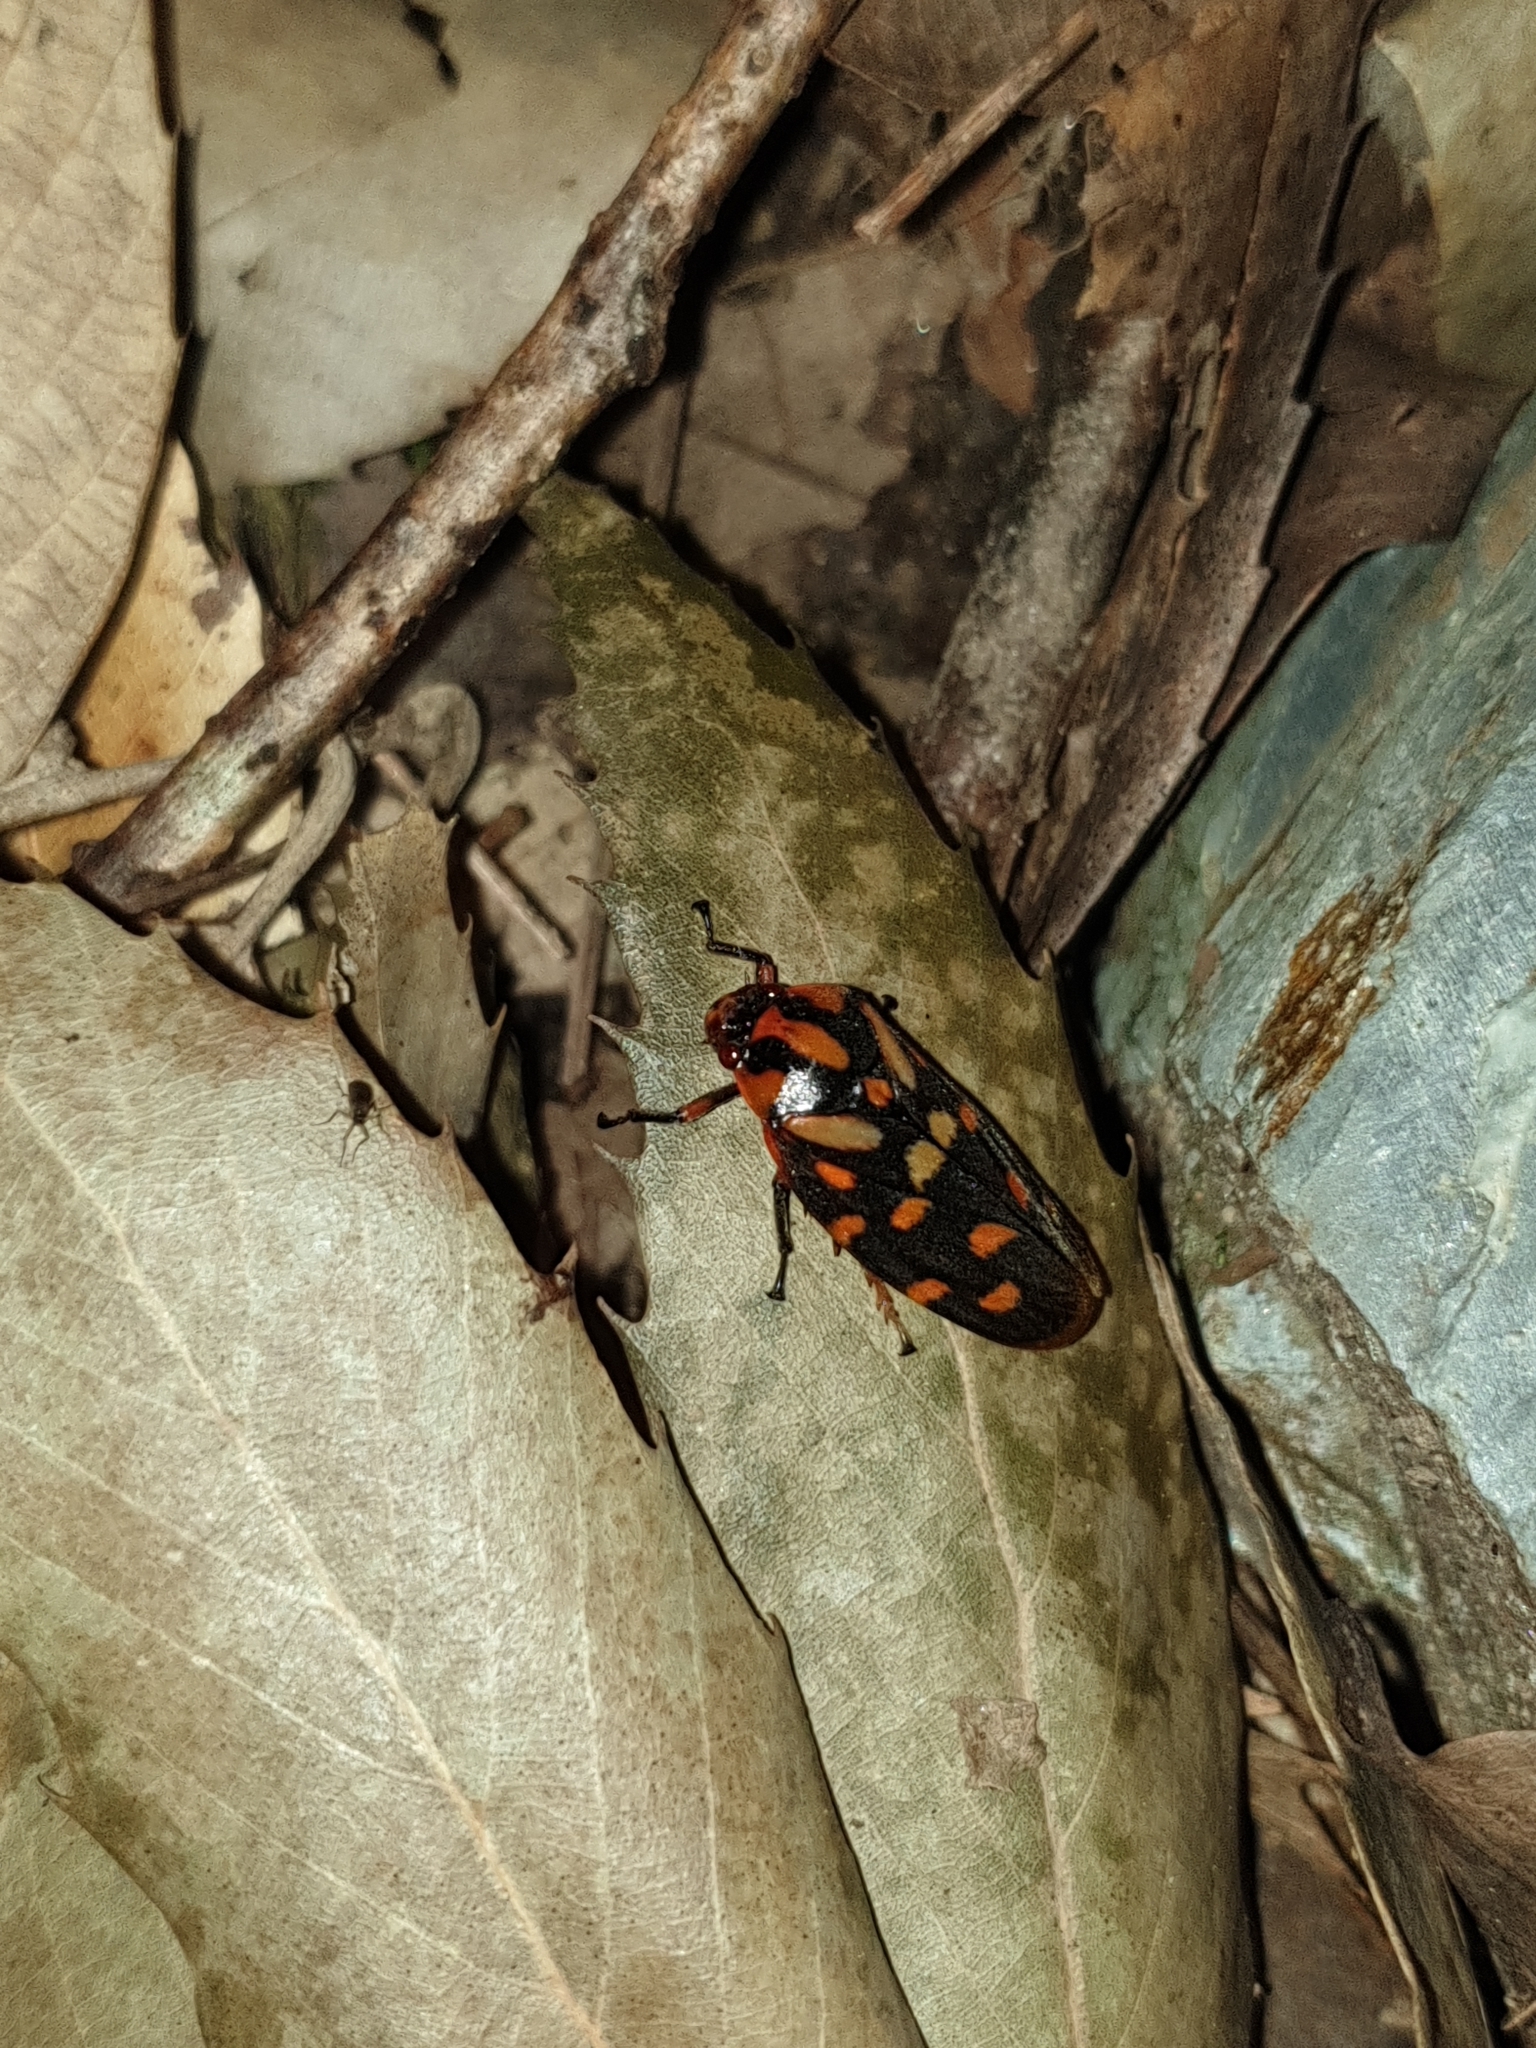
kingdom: Animalia
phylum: Arthropoda
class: Insecta
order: Hemiptera
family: Cercopidae
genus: Phymatostetha
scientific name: Phymatostetha dorsivitta
